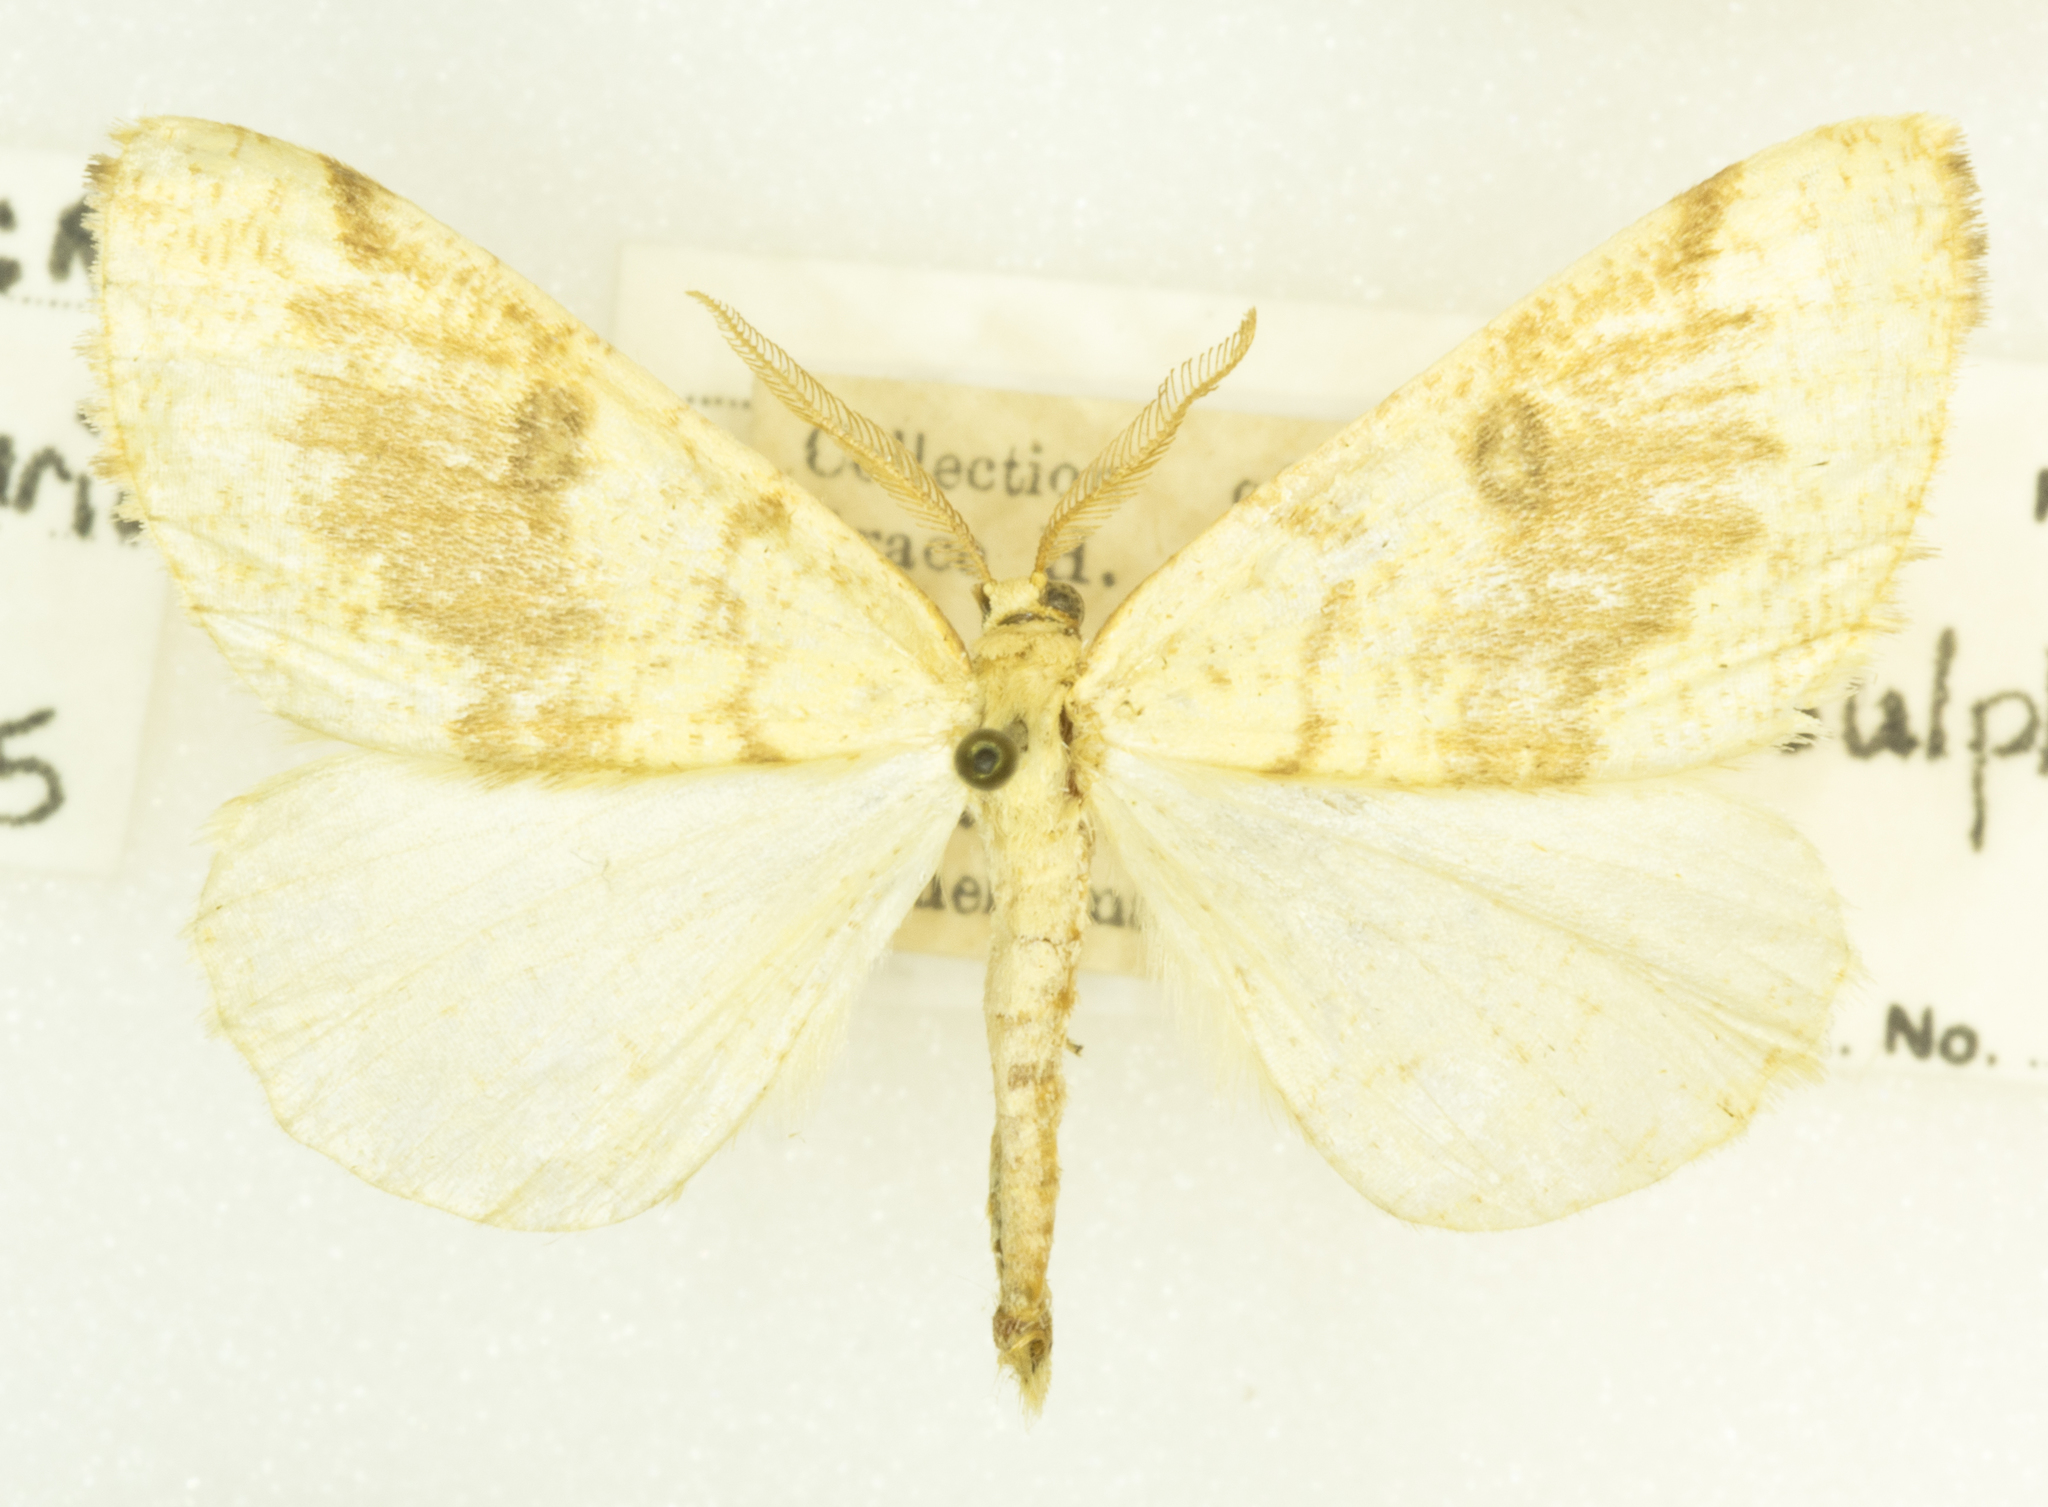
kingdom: Animalia
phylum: Arthropoda
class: Insecta
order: Lepidoptera
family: Geometridae
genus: Hesperumia
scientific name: Hesperumia sulphuraria
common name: Sulphur moth
